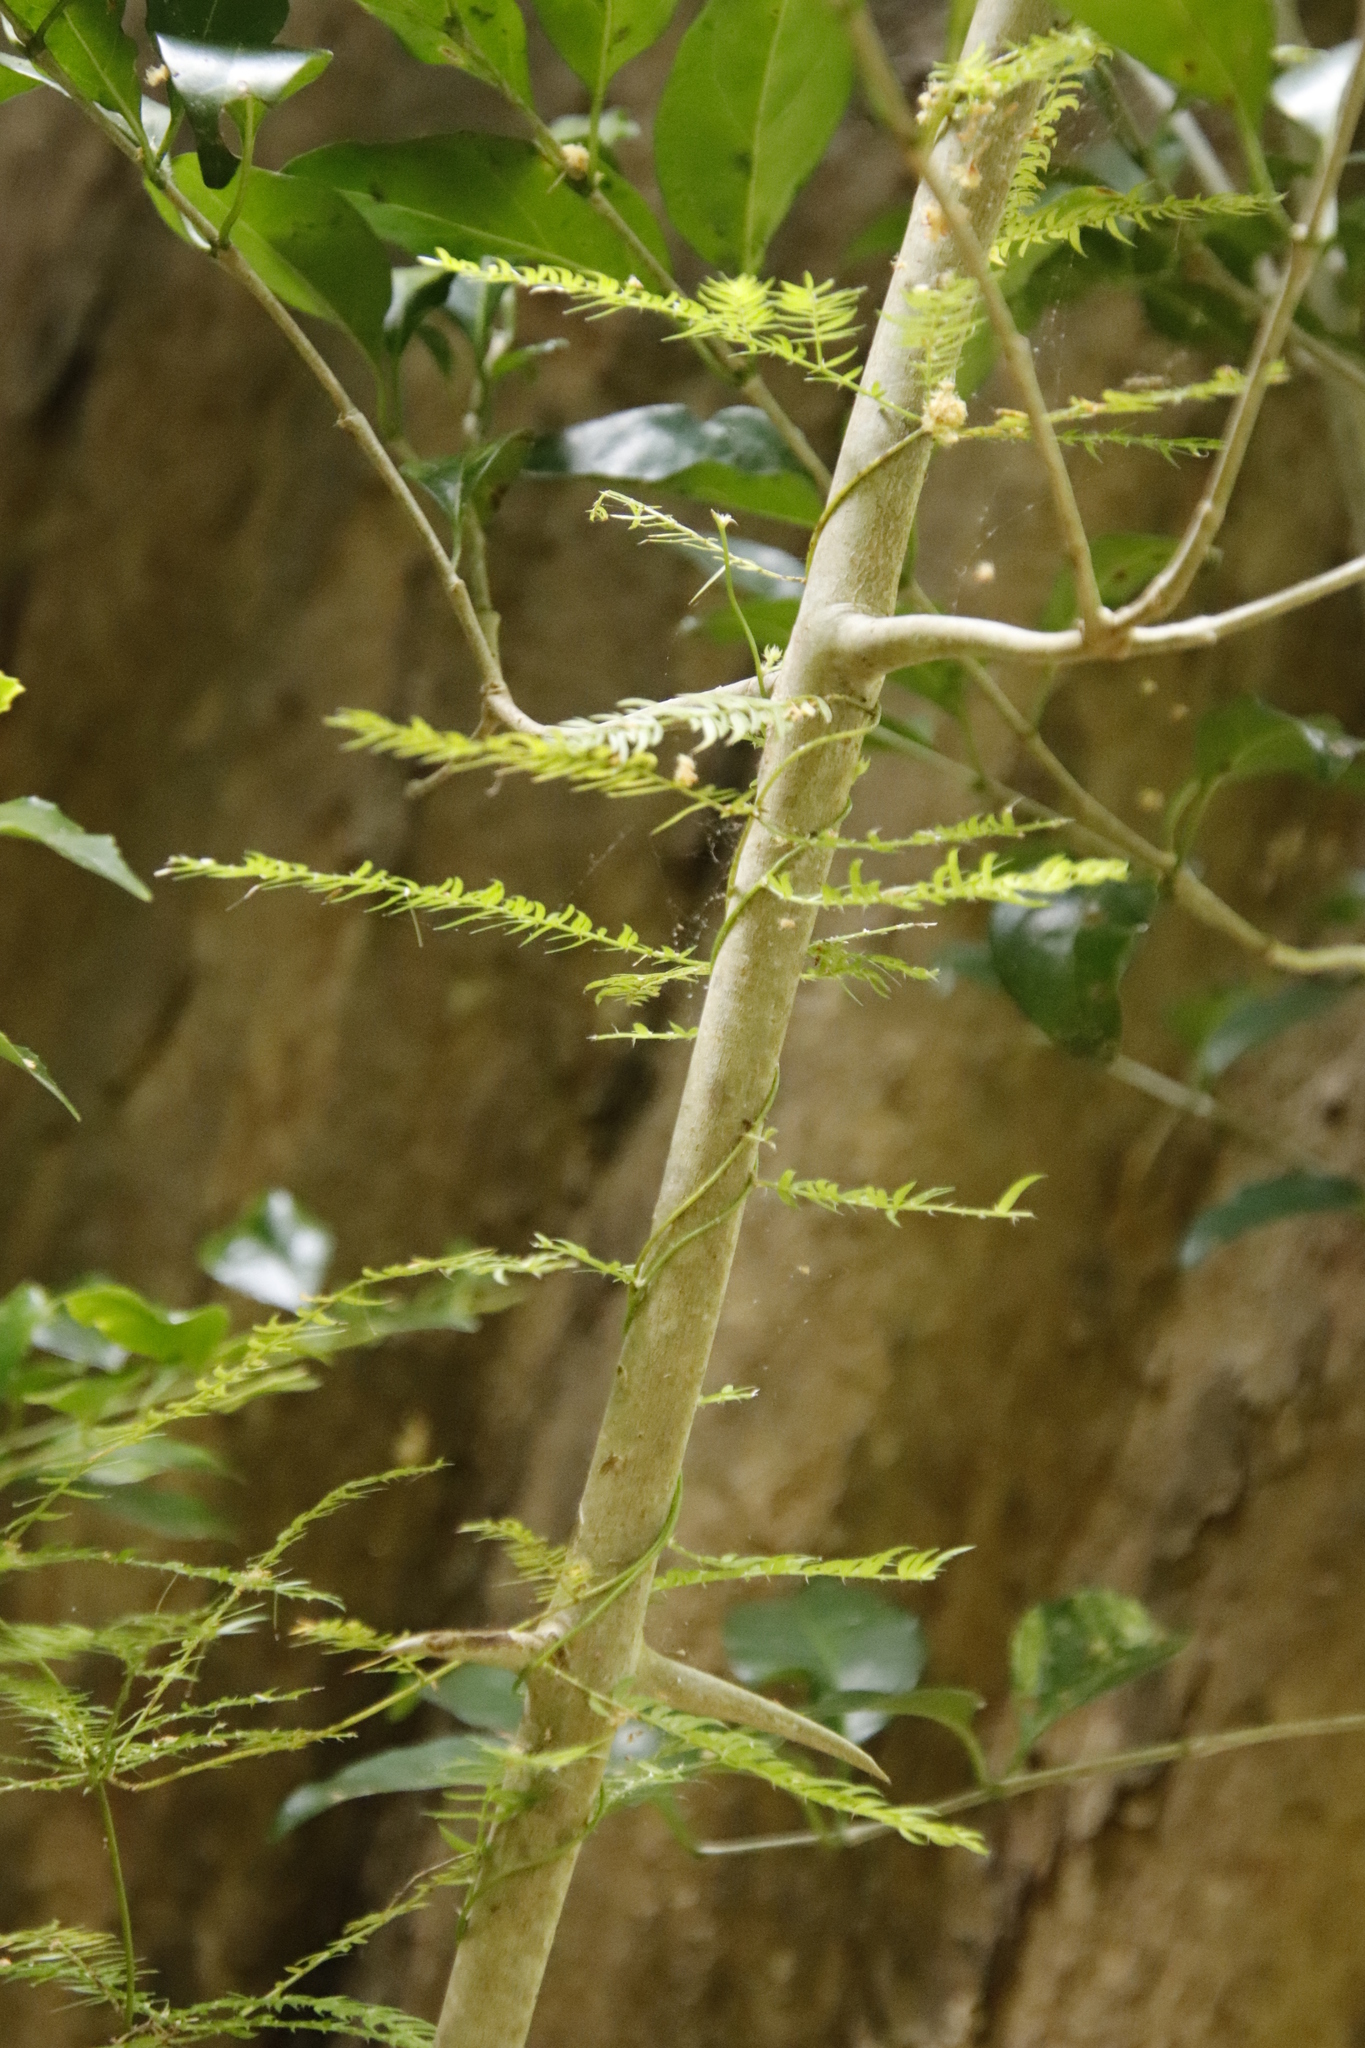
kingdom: Plantae
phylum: Tracheophyta
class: Liliopsida
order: Asparagales
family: Asparagaceae
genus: Asparagus
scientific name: Asparagus scandens
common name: Asparagus-fern
